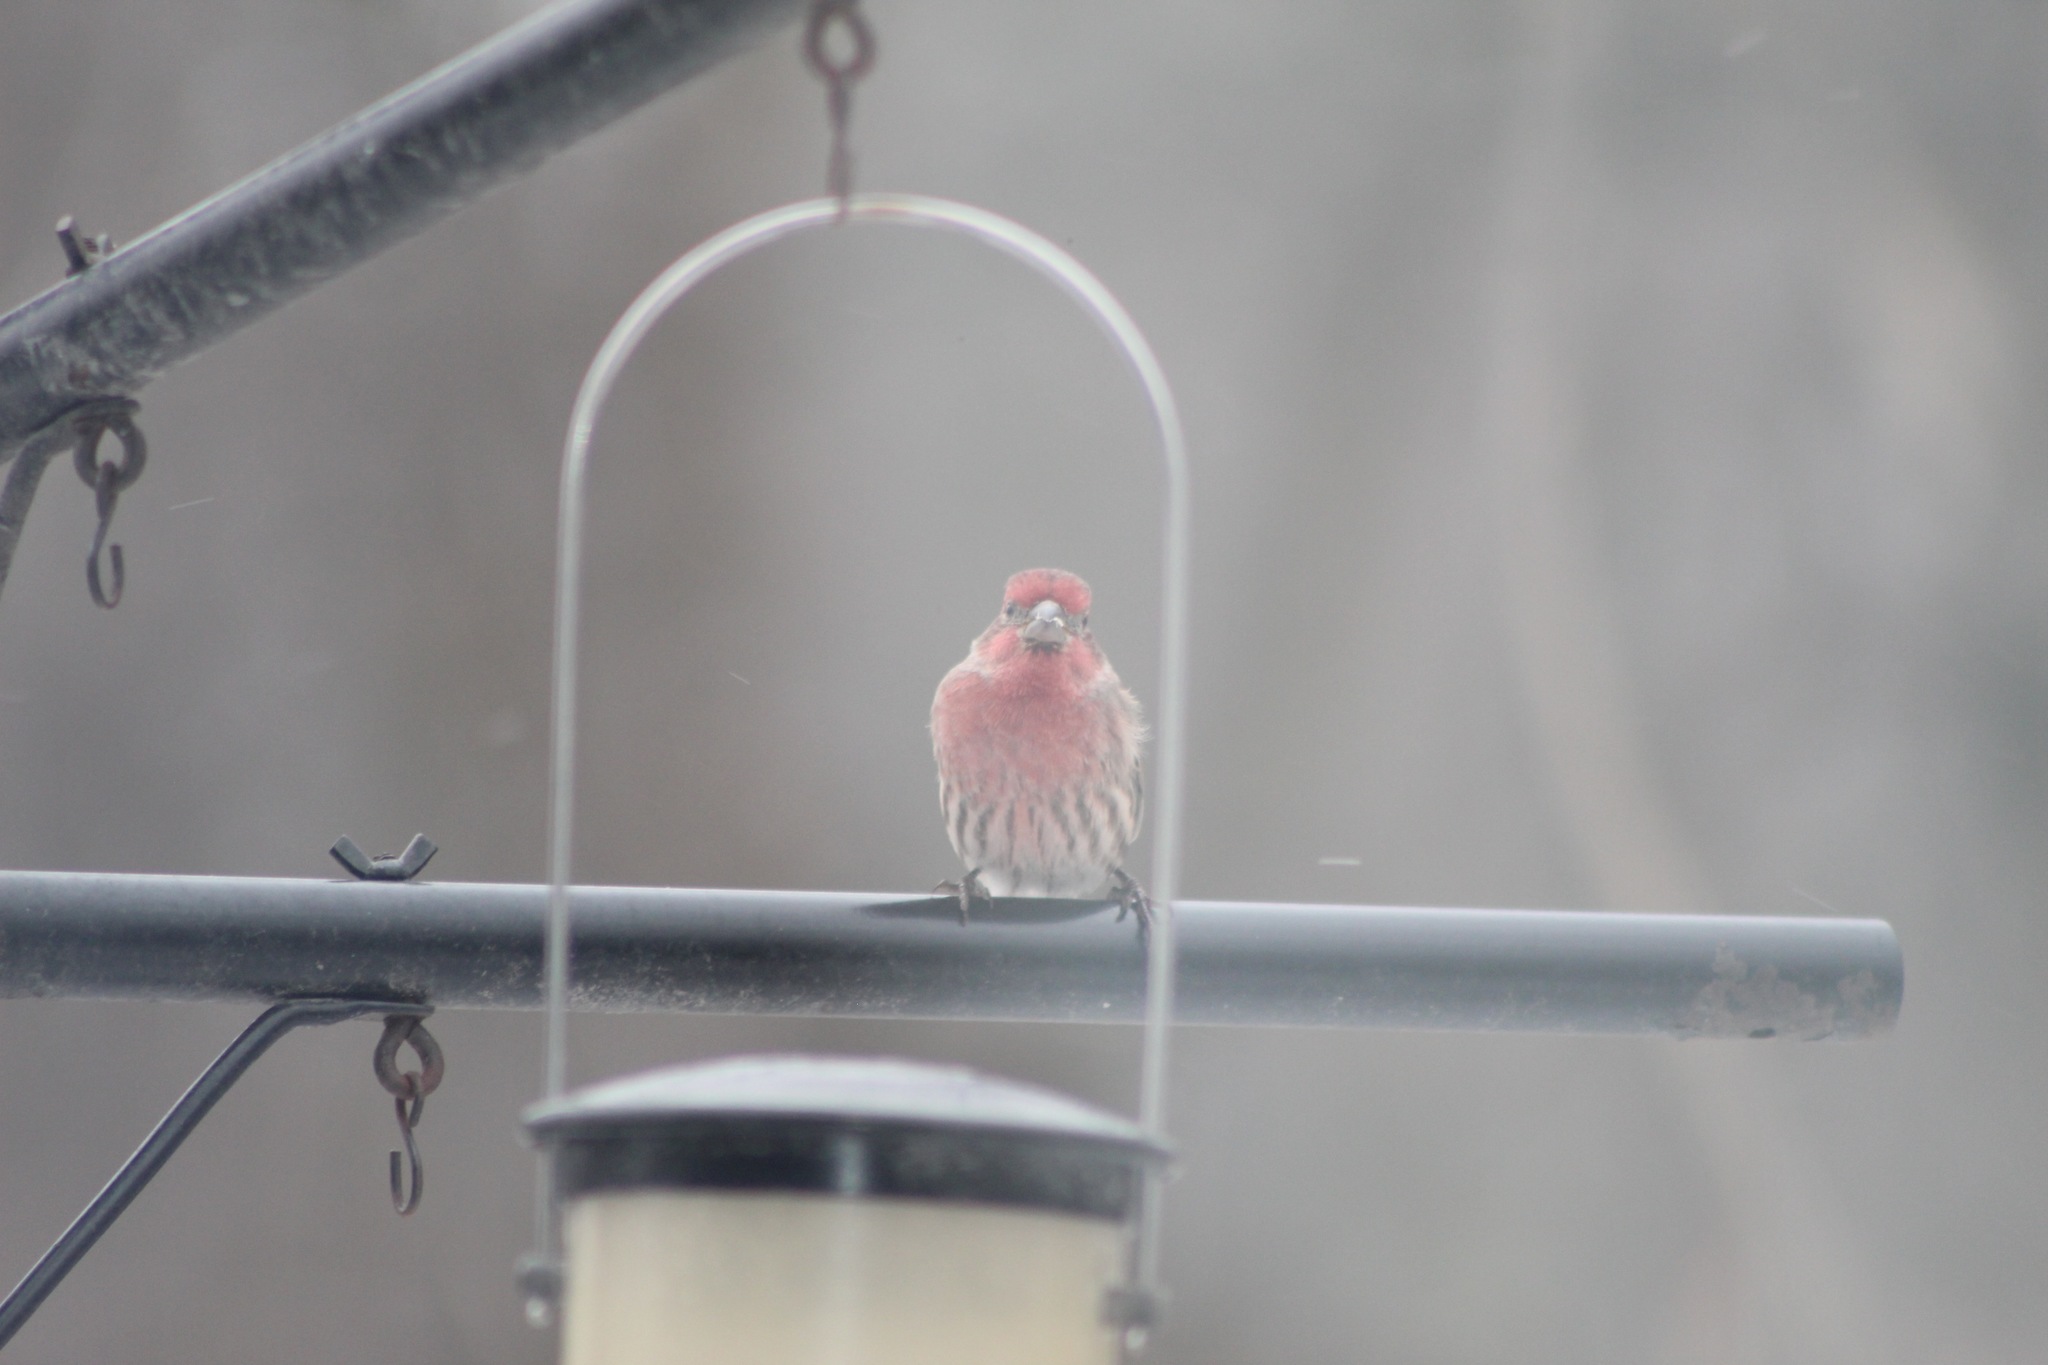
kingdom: Animalia
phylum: Chordata
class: Aves
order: Passeriformes
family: Fringillidae
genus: Haemorhous
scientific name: Haemorhous mexicanus
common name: House finch
